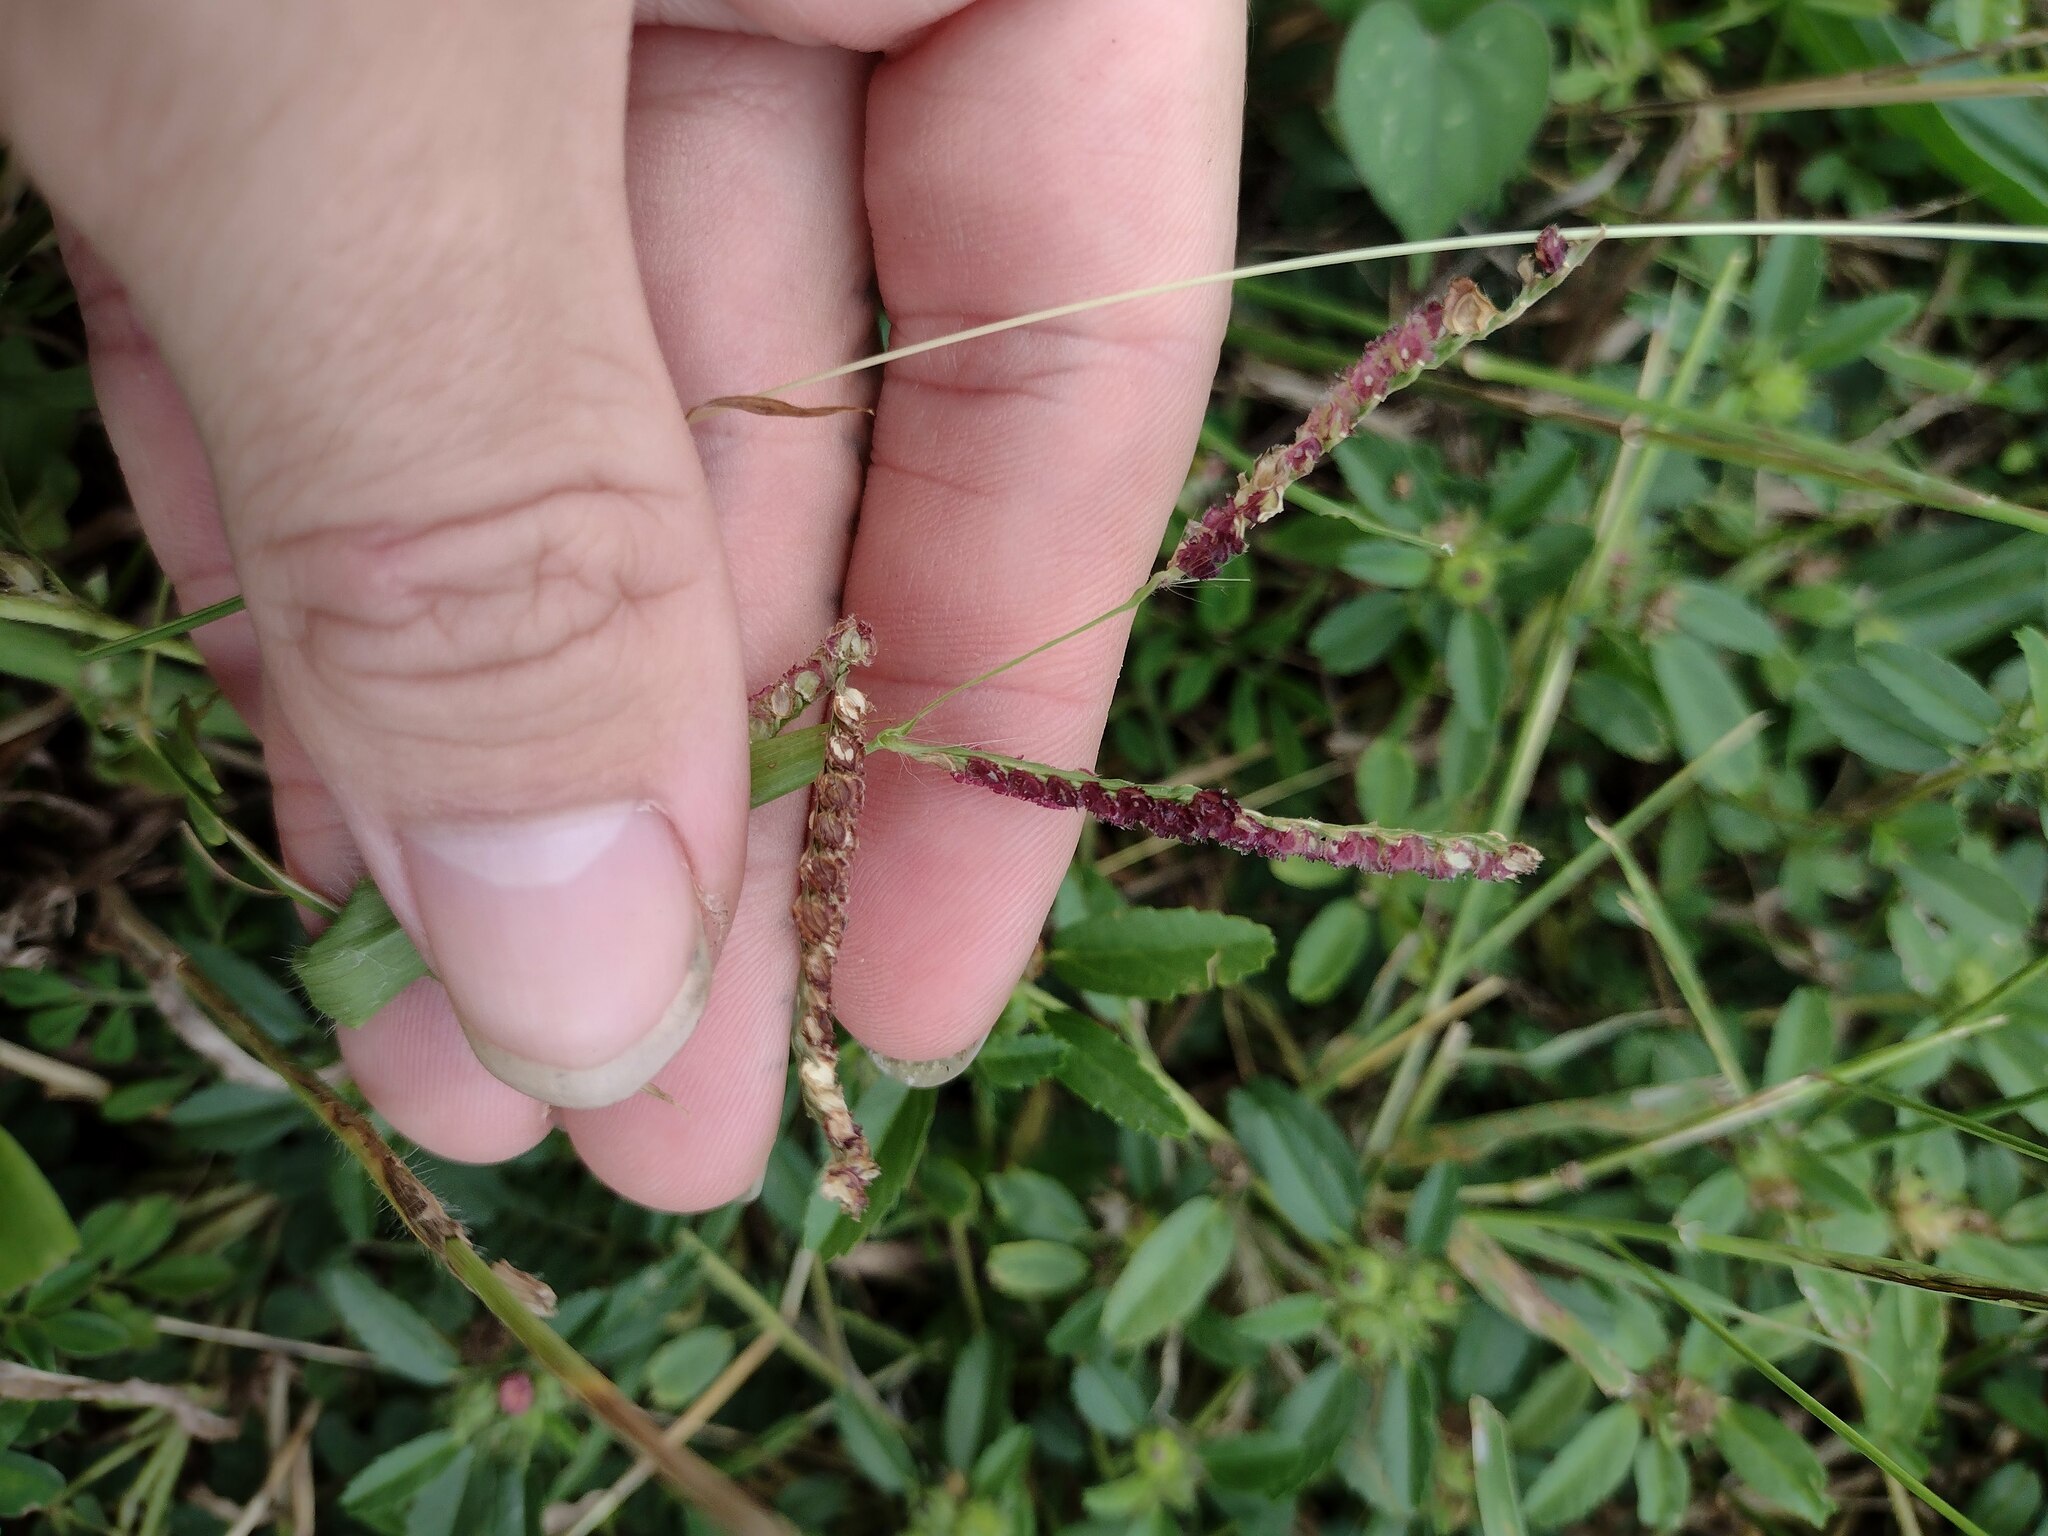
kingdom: Plantae
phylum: Tracheophyta
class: Liliopsida
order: Poales
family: Poaceae
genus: Paspalum
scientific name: Paspalum fimbriatum
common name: Panama crowngrass
